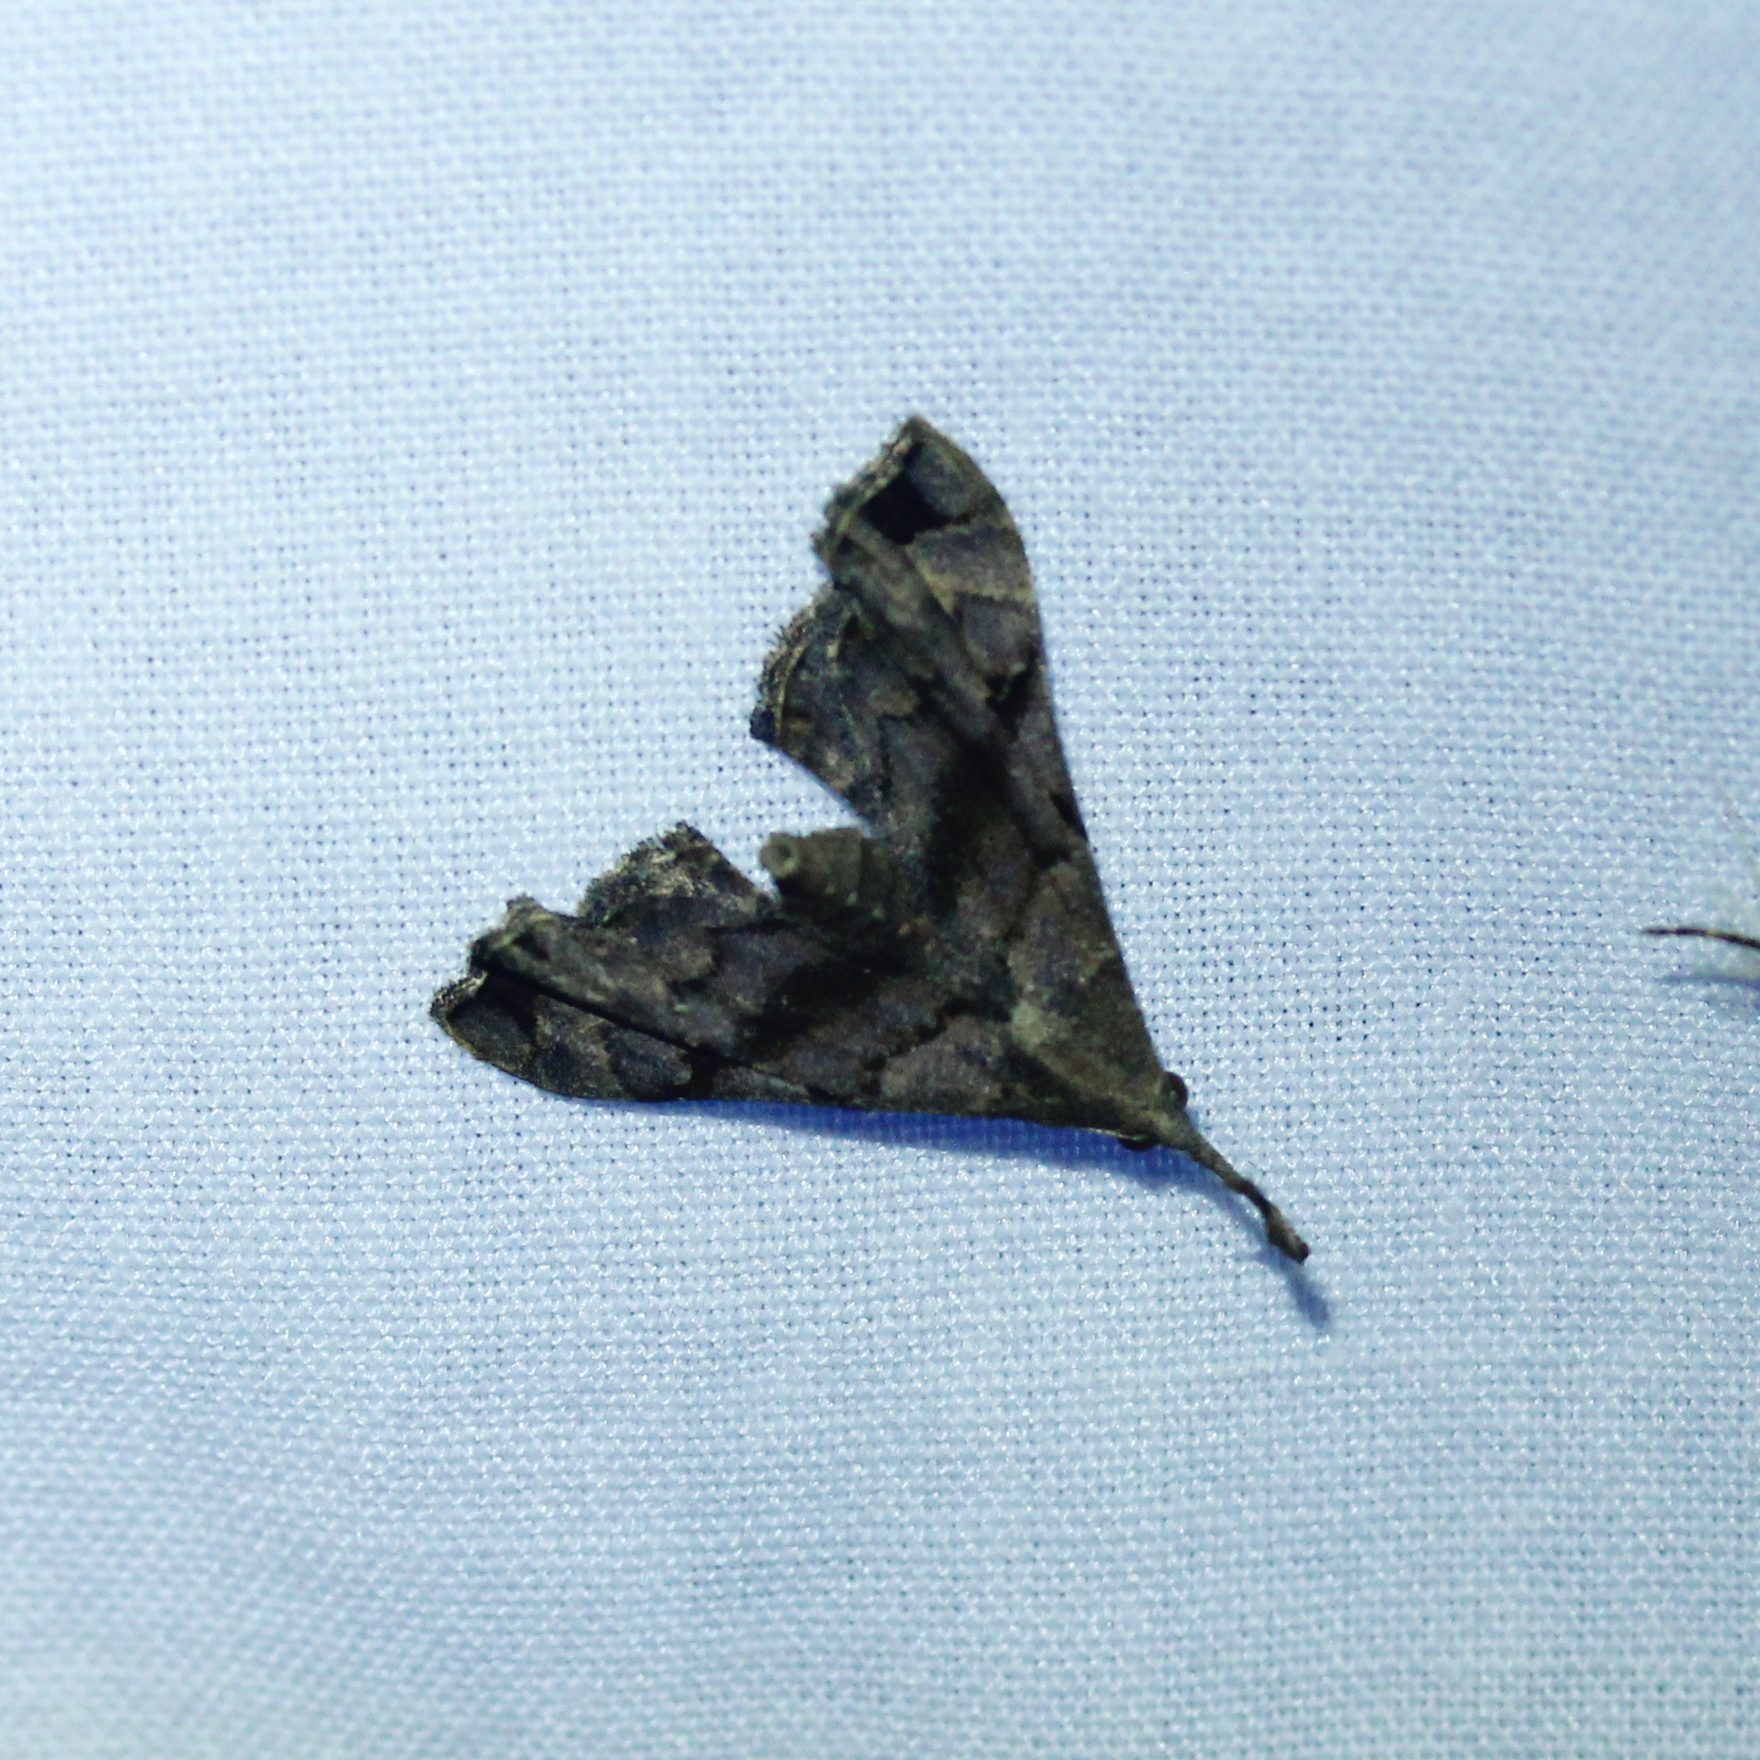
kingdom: Animalia
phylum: Arthropoda
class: Insecta
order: Lepidoptera
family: Erebidae
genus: Palthis
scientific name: Palthis asopialis
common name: Faint-spotted palthis moth
